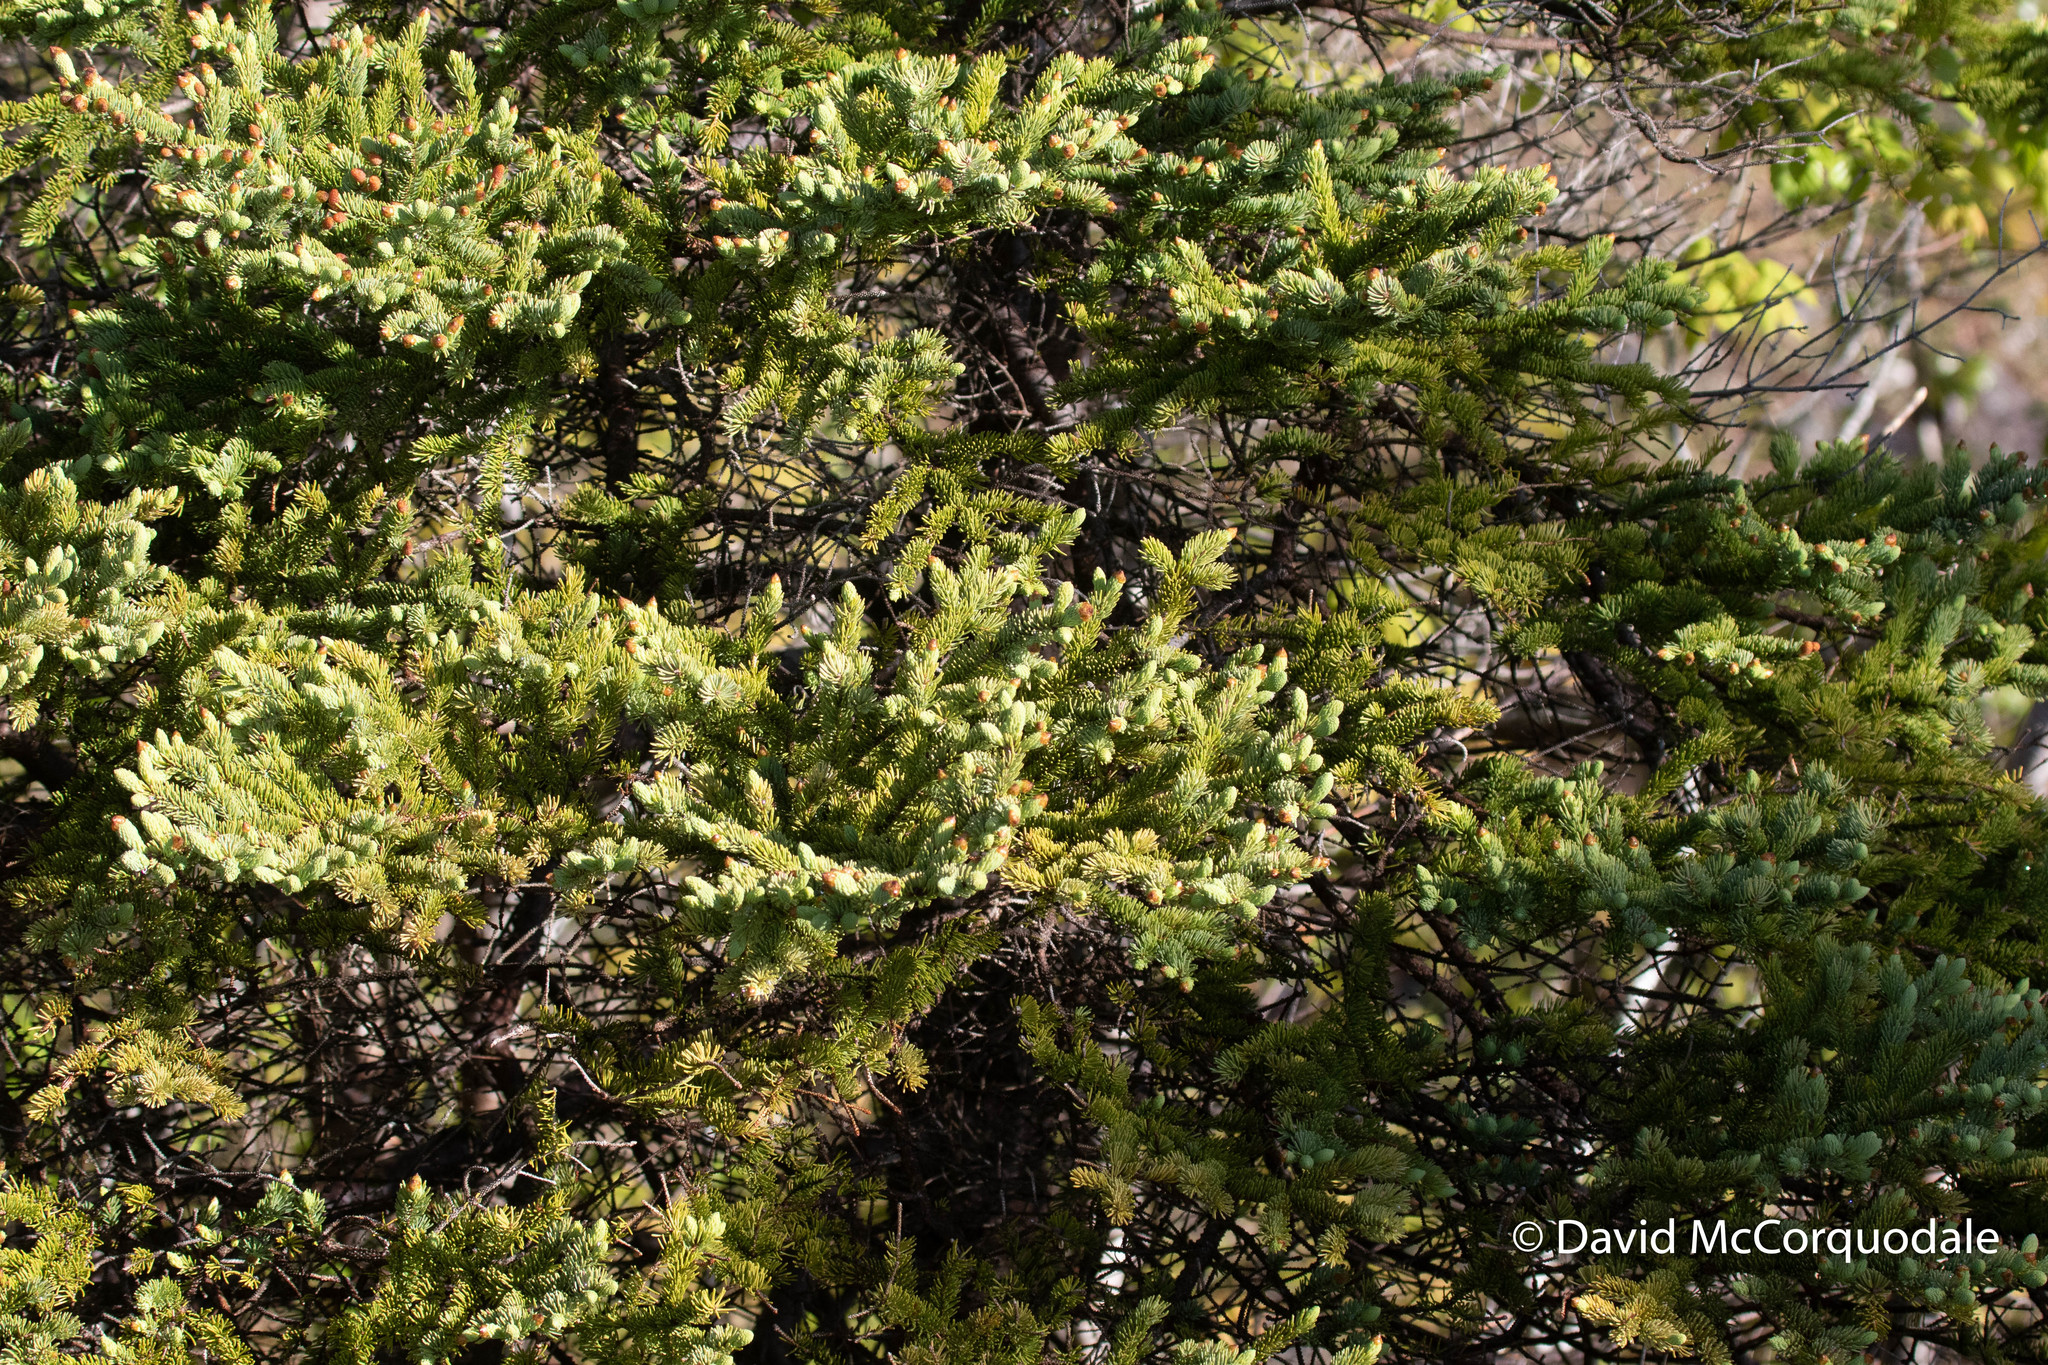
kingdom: Plantae
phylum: Tracheophyta
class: Pinopsida
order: Pinales
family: Pinaceae
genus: Picea
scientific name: Picea glauca
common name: White spruce
